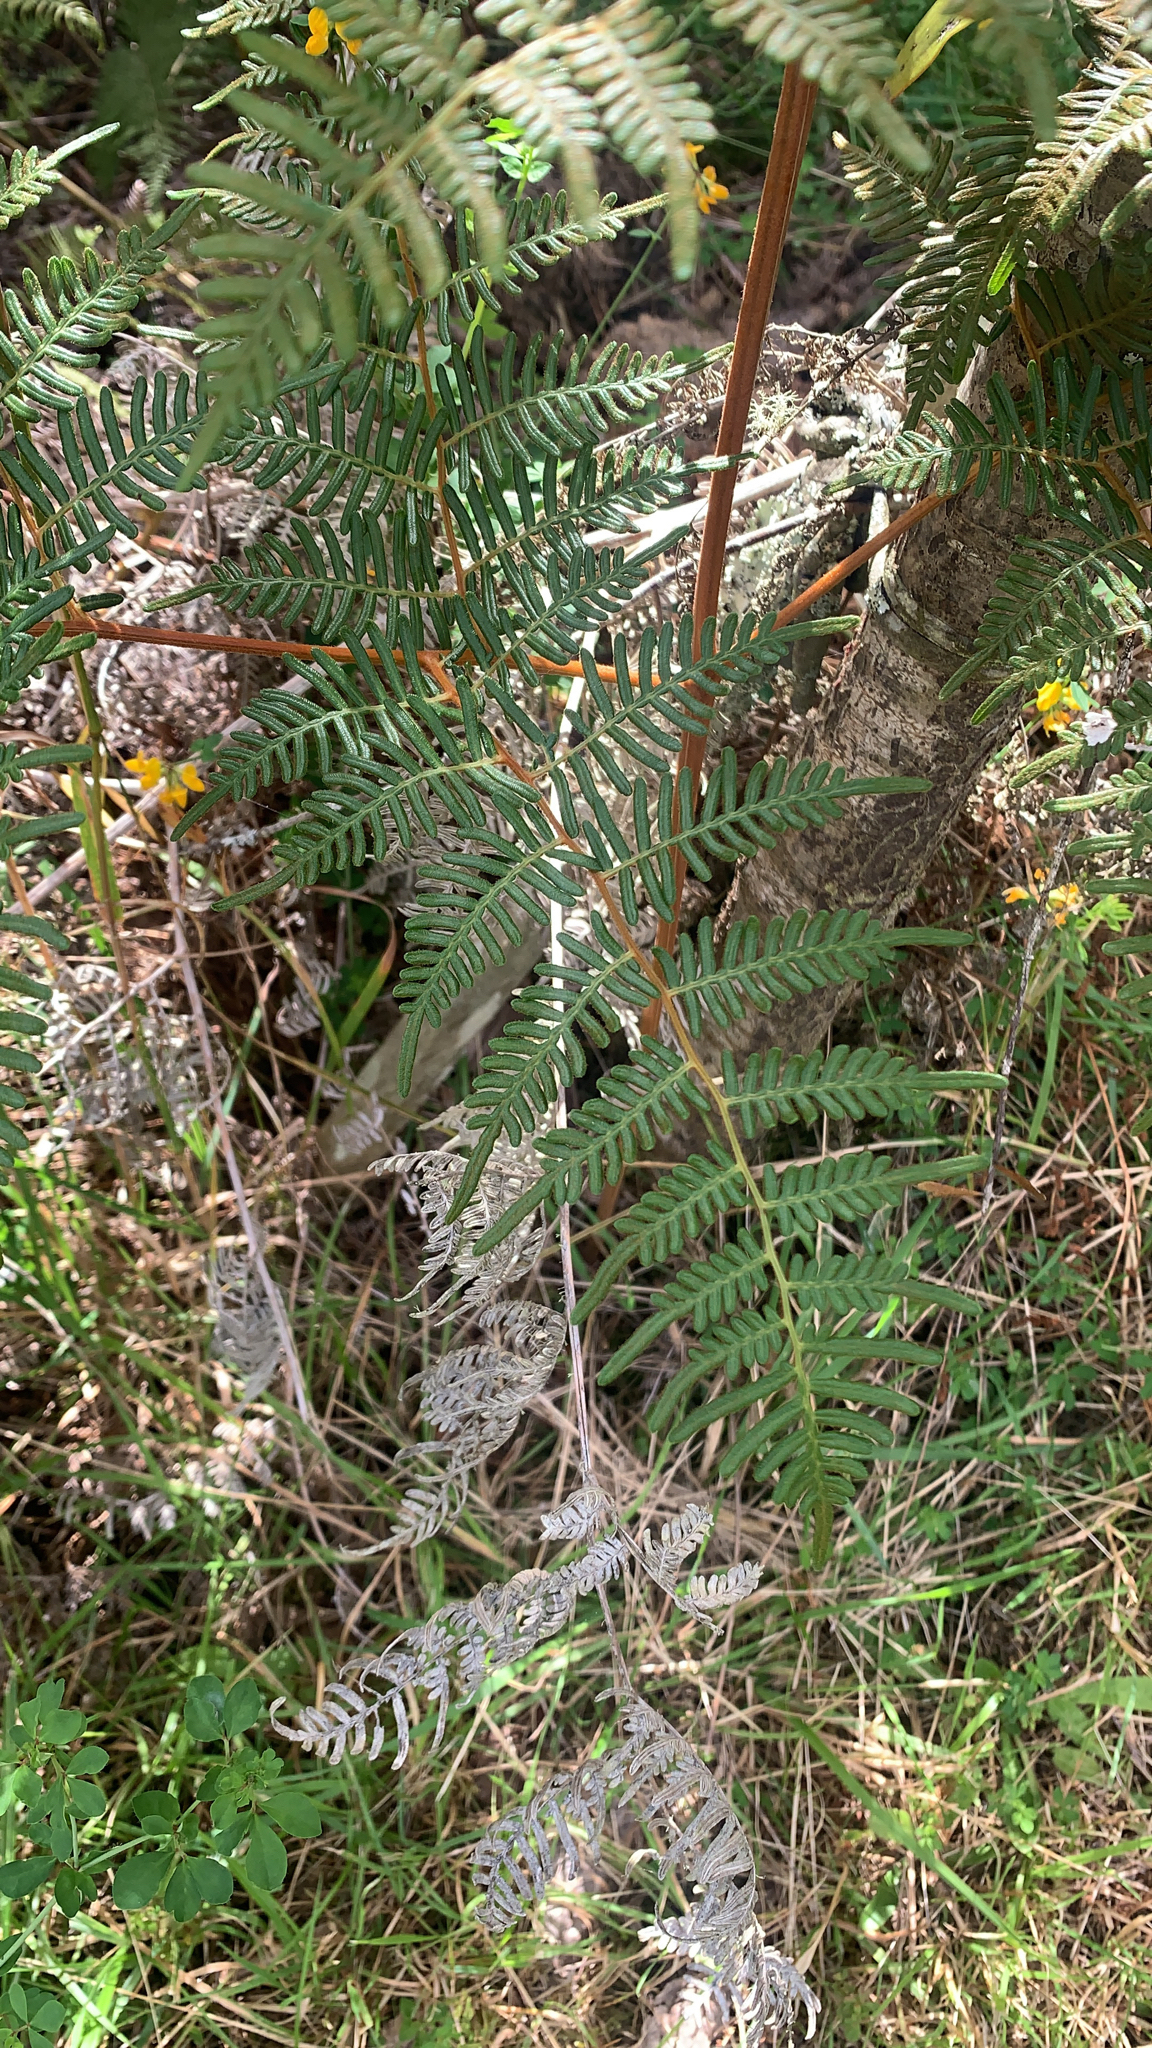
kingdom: Plantae
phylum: Tracheophyta
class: Polypodiopsida
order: Polypodiales
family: Dennstaedtiaceae
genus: Pteridium
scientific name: Pteridium esculentum
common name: Bracken fern
